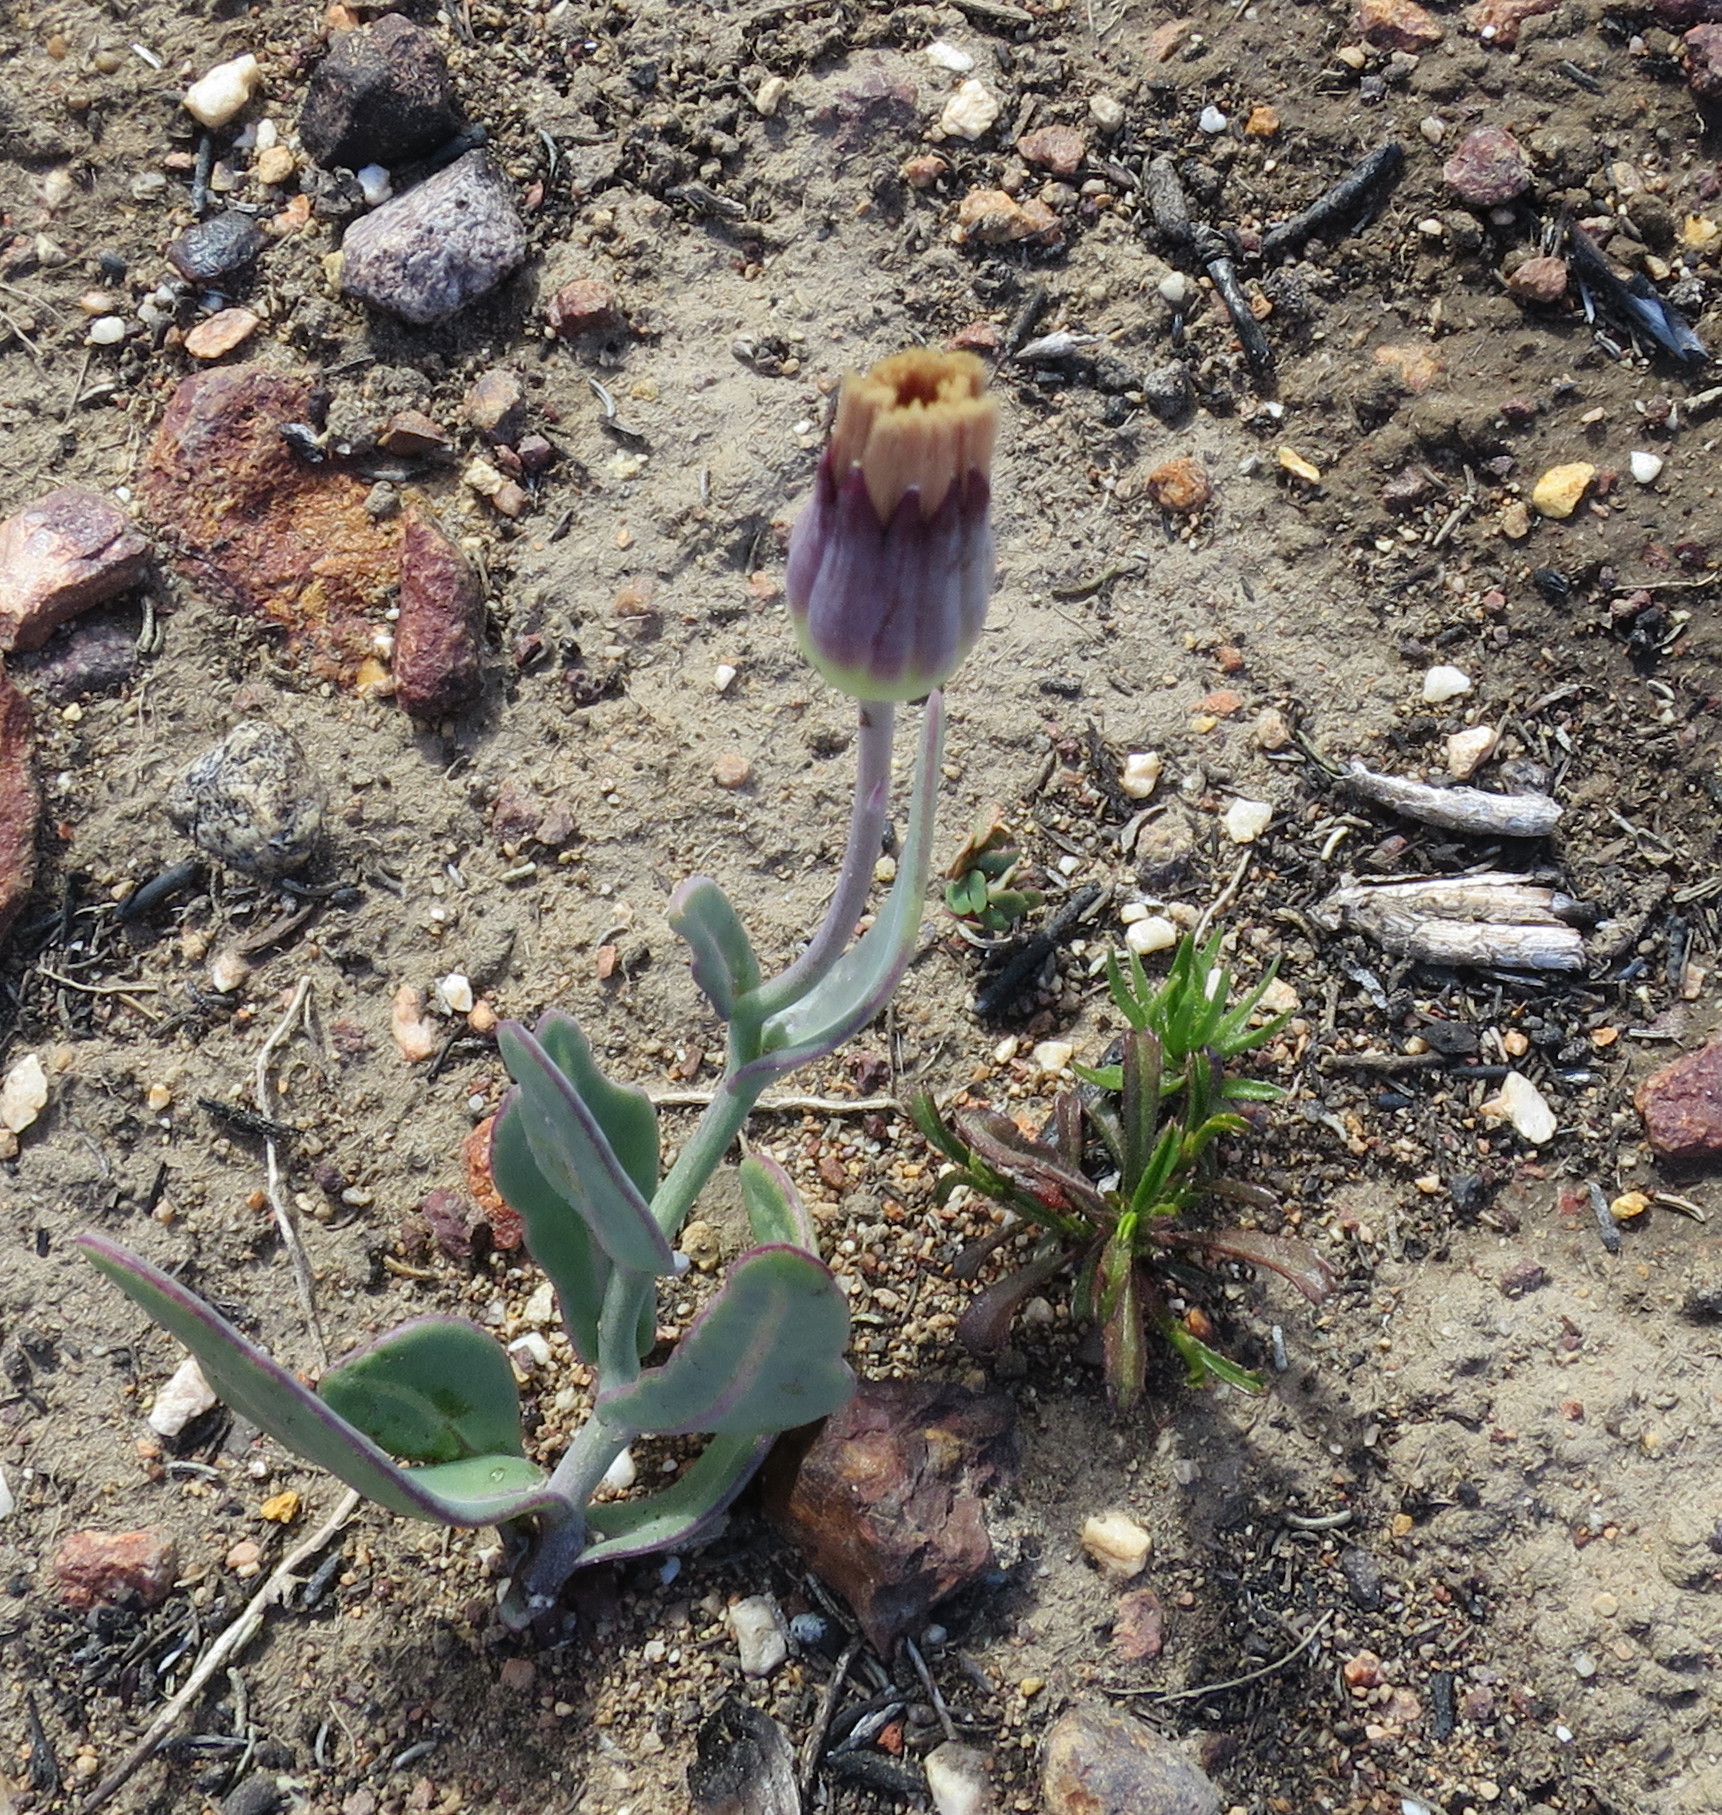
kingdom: Plantae
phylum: Tracheophyta
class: Magnoliopsida
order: Asterales
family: Asteraceae
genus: Othonna
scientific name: Othonna gymnodiscus
